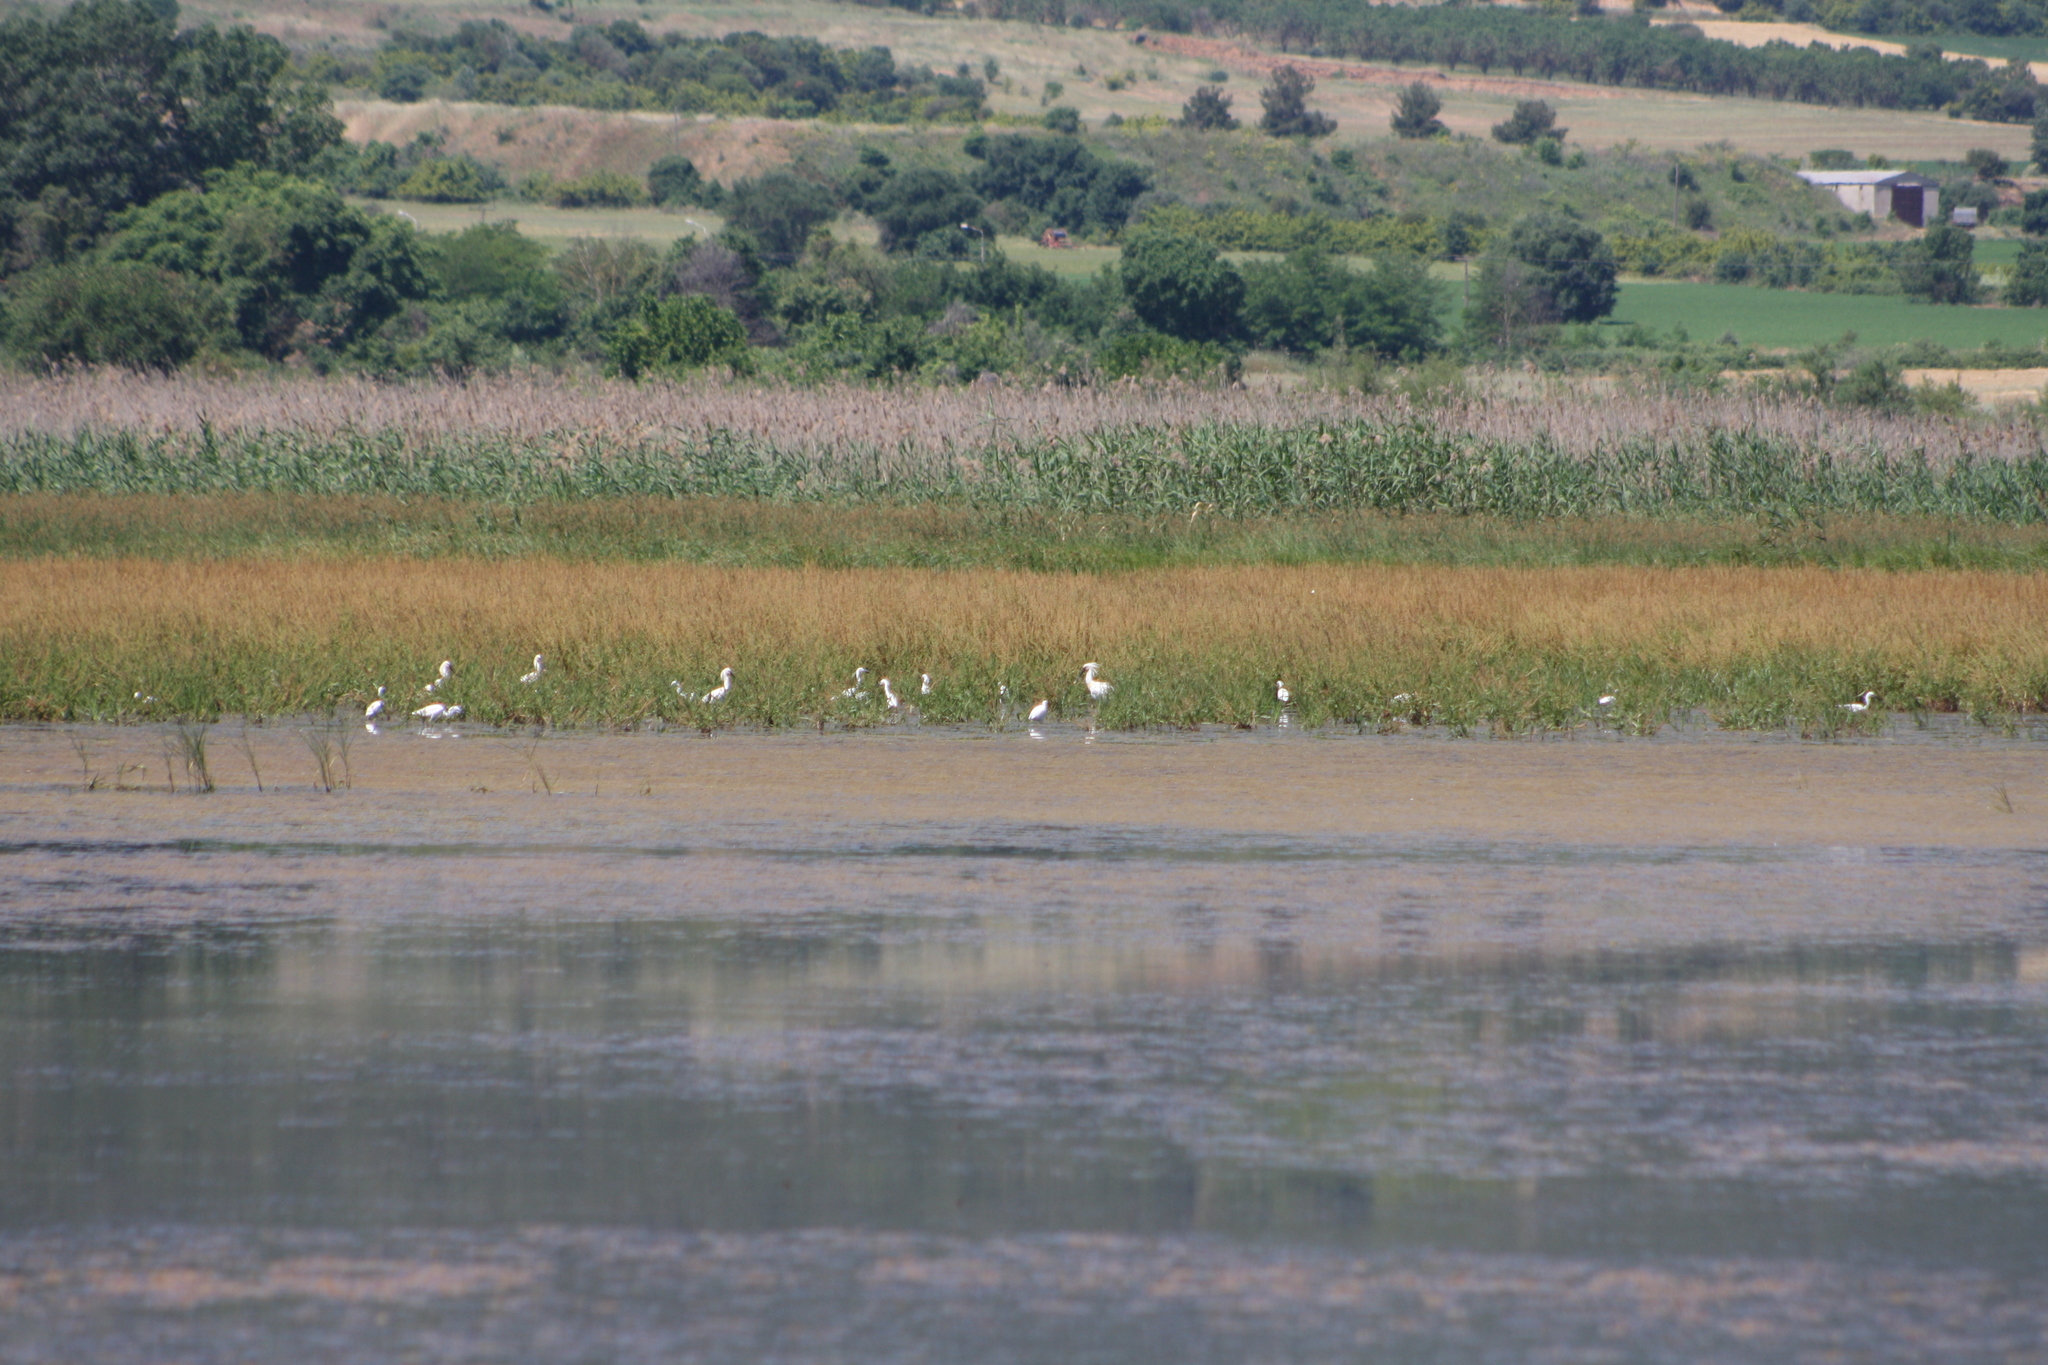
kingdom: Animalia
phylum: Chordata
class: Aves
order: Pelecaniformes
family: Threskiornithidae
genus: Platalea
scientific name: Platalea leucorodia
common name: Eurasian spoonbill
